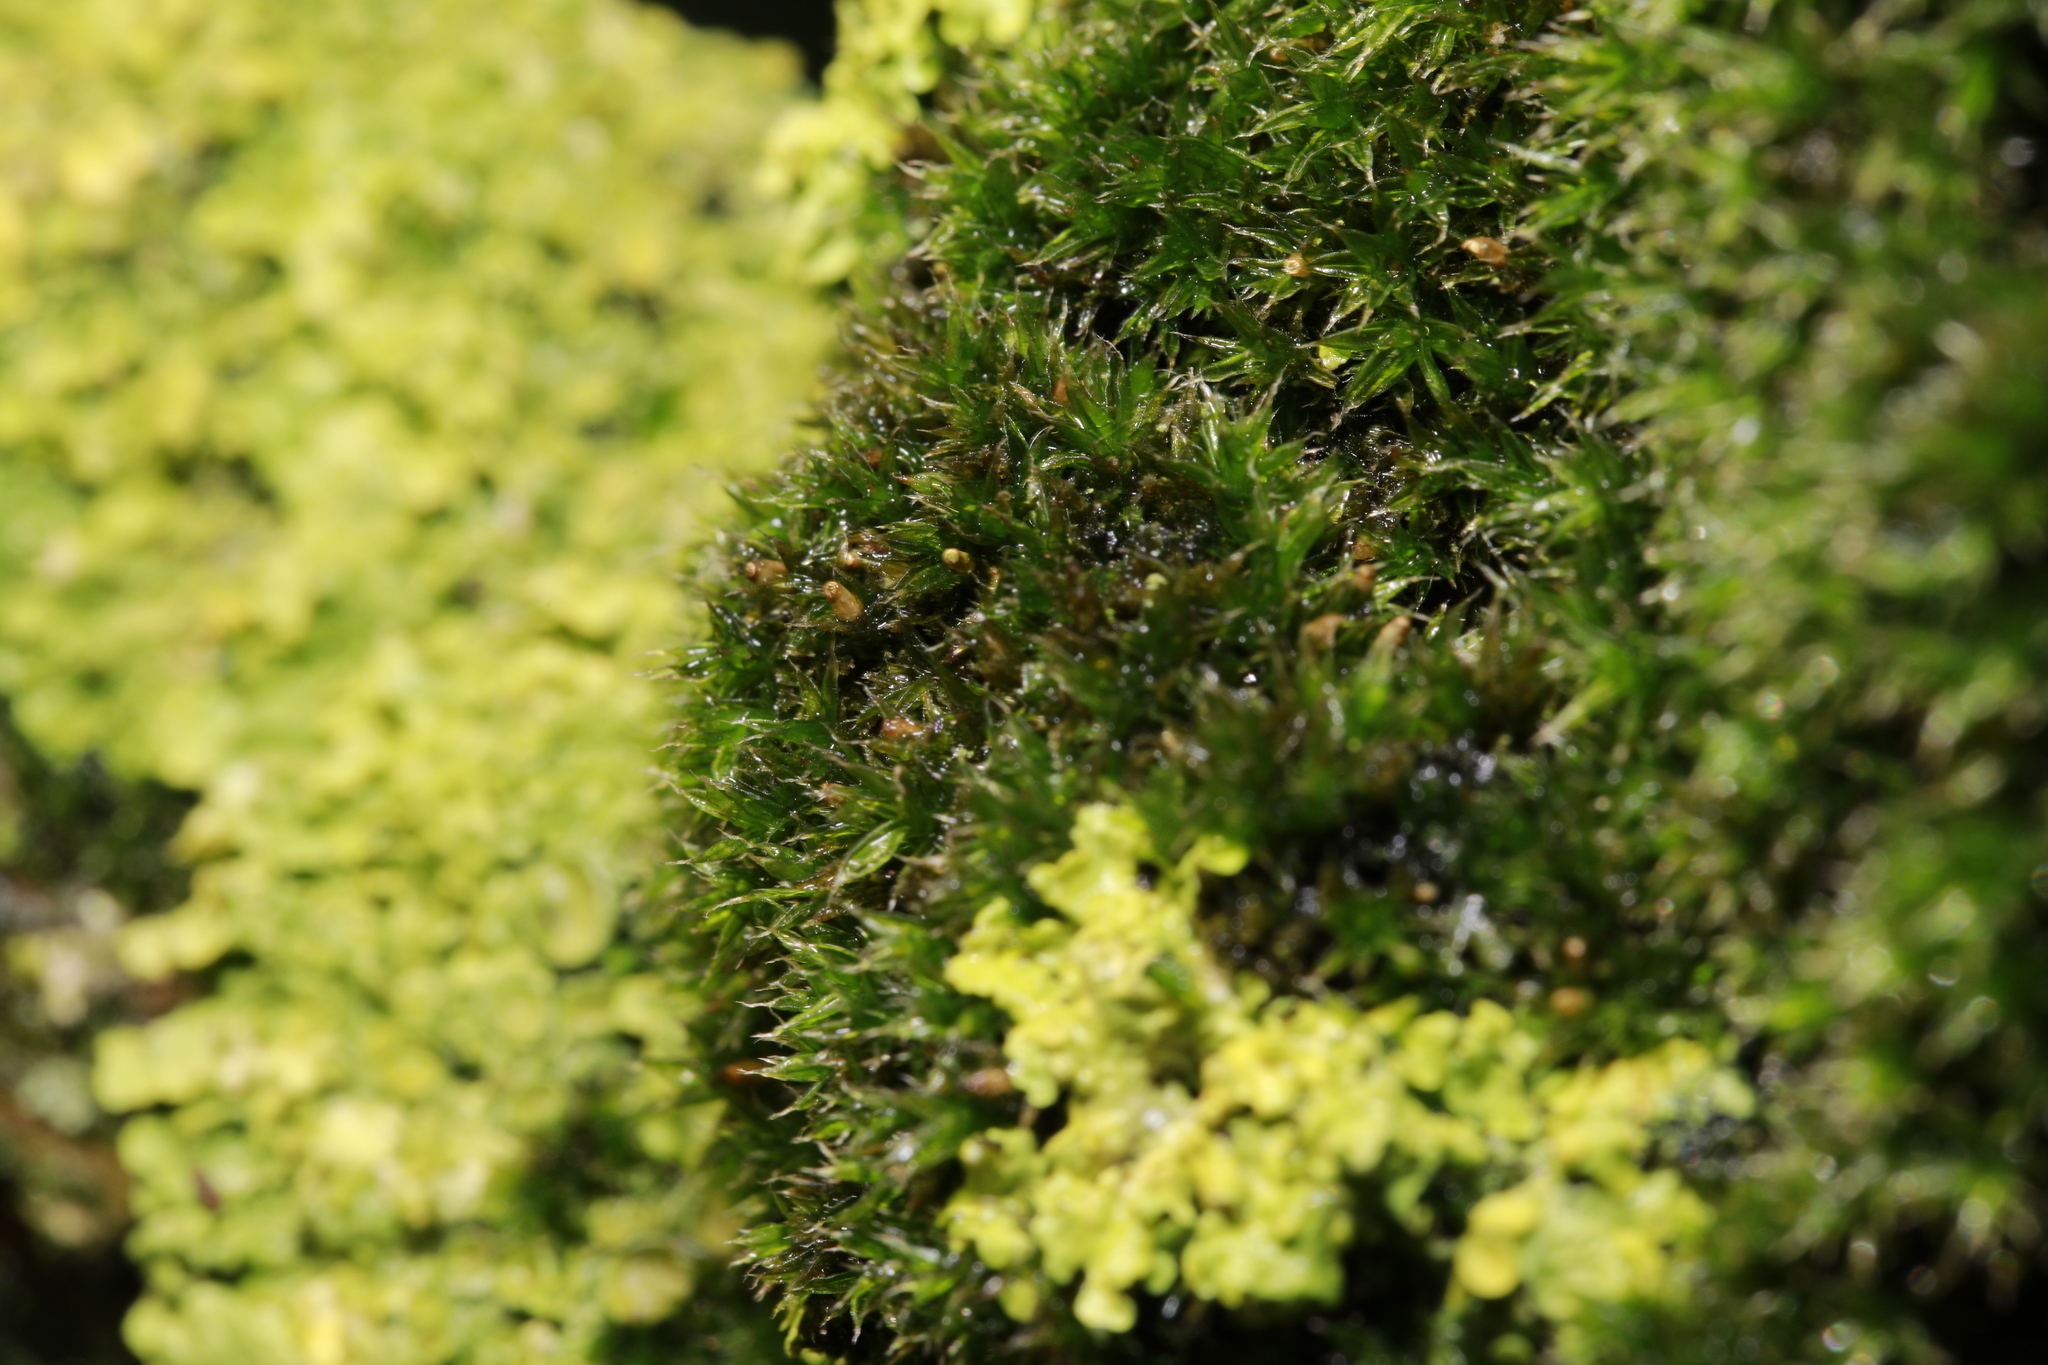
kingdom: Plantae
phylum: Bryophyta
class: Bryopsida
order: Orthotrichales
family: Orthotrichaceae
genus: Orthotrichum
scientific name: Orthotrichum diaphanum
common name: White-tipped bristle-moss
